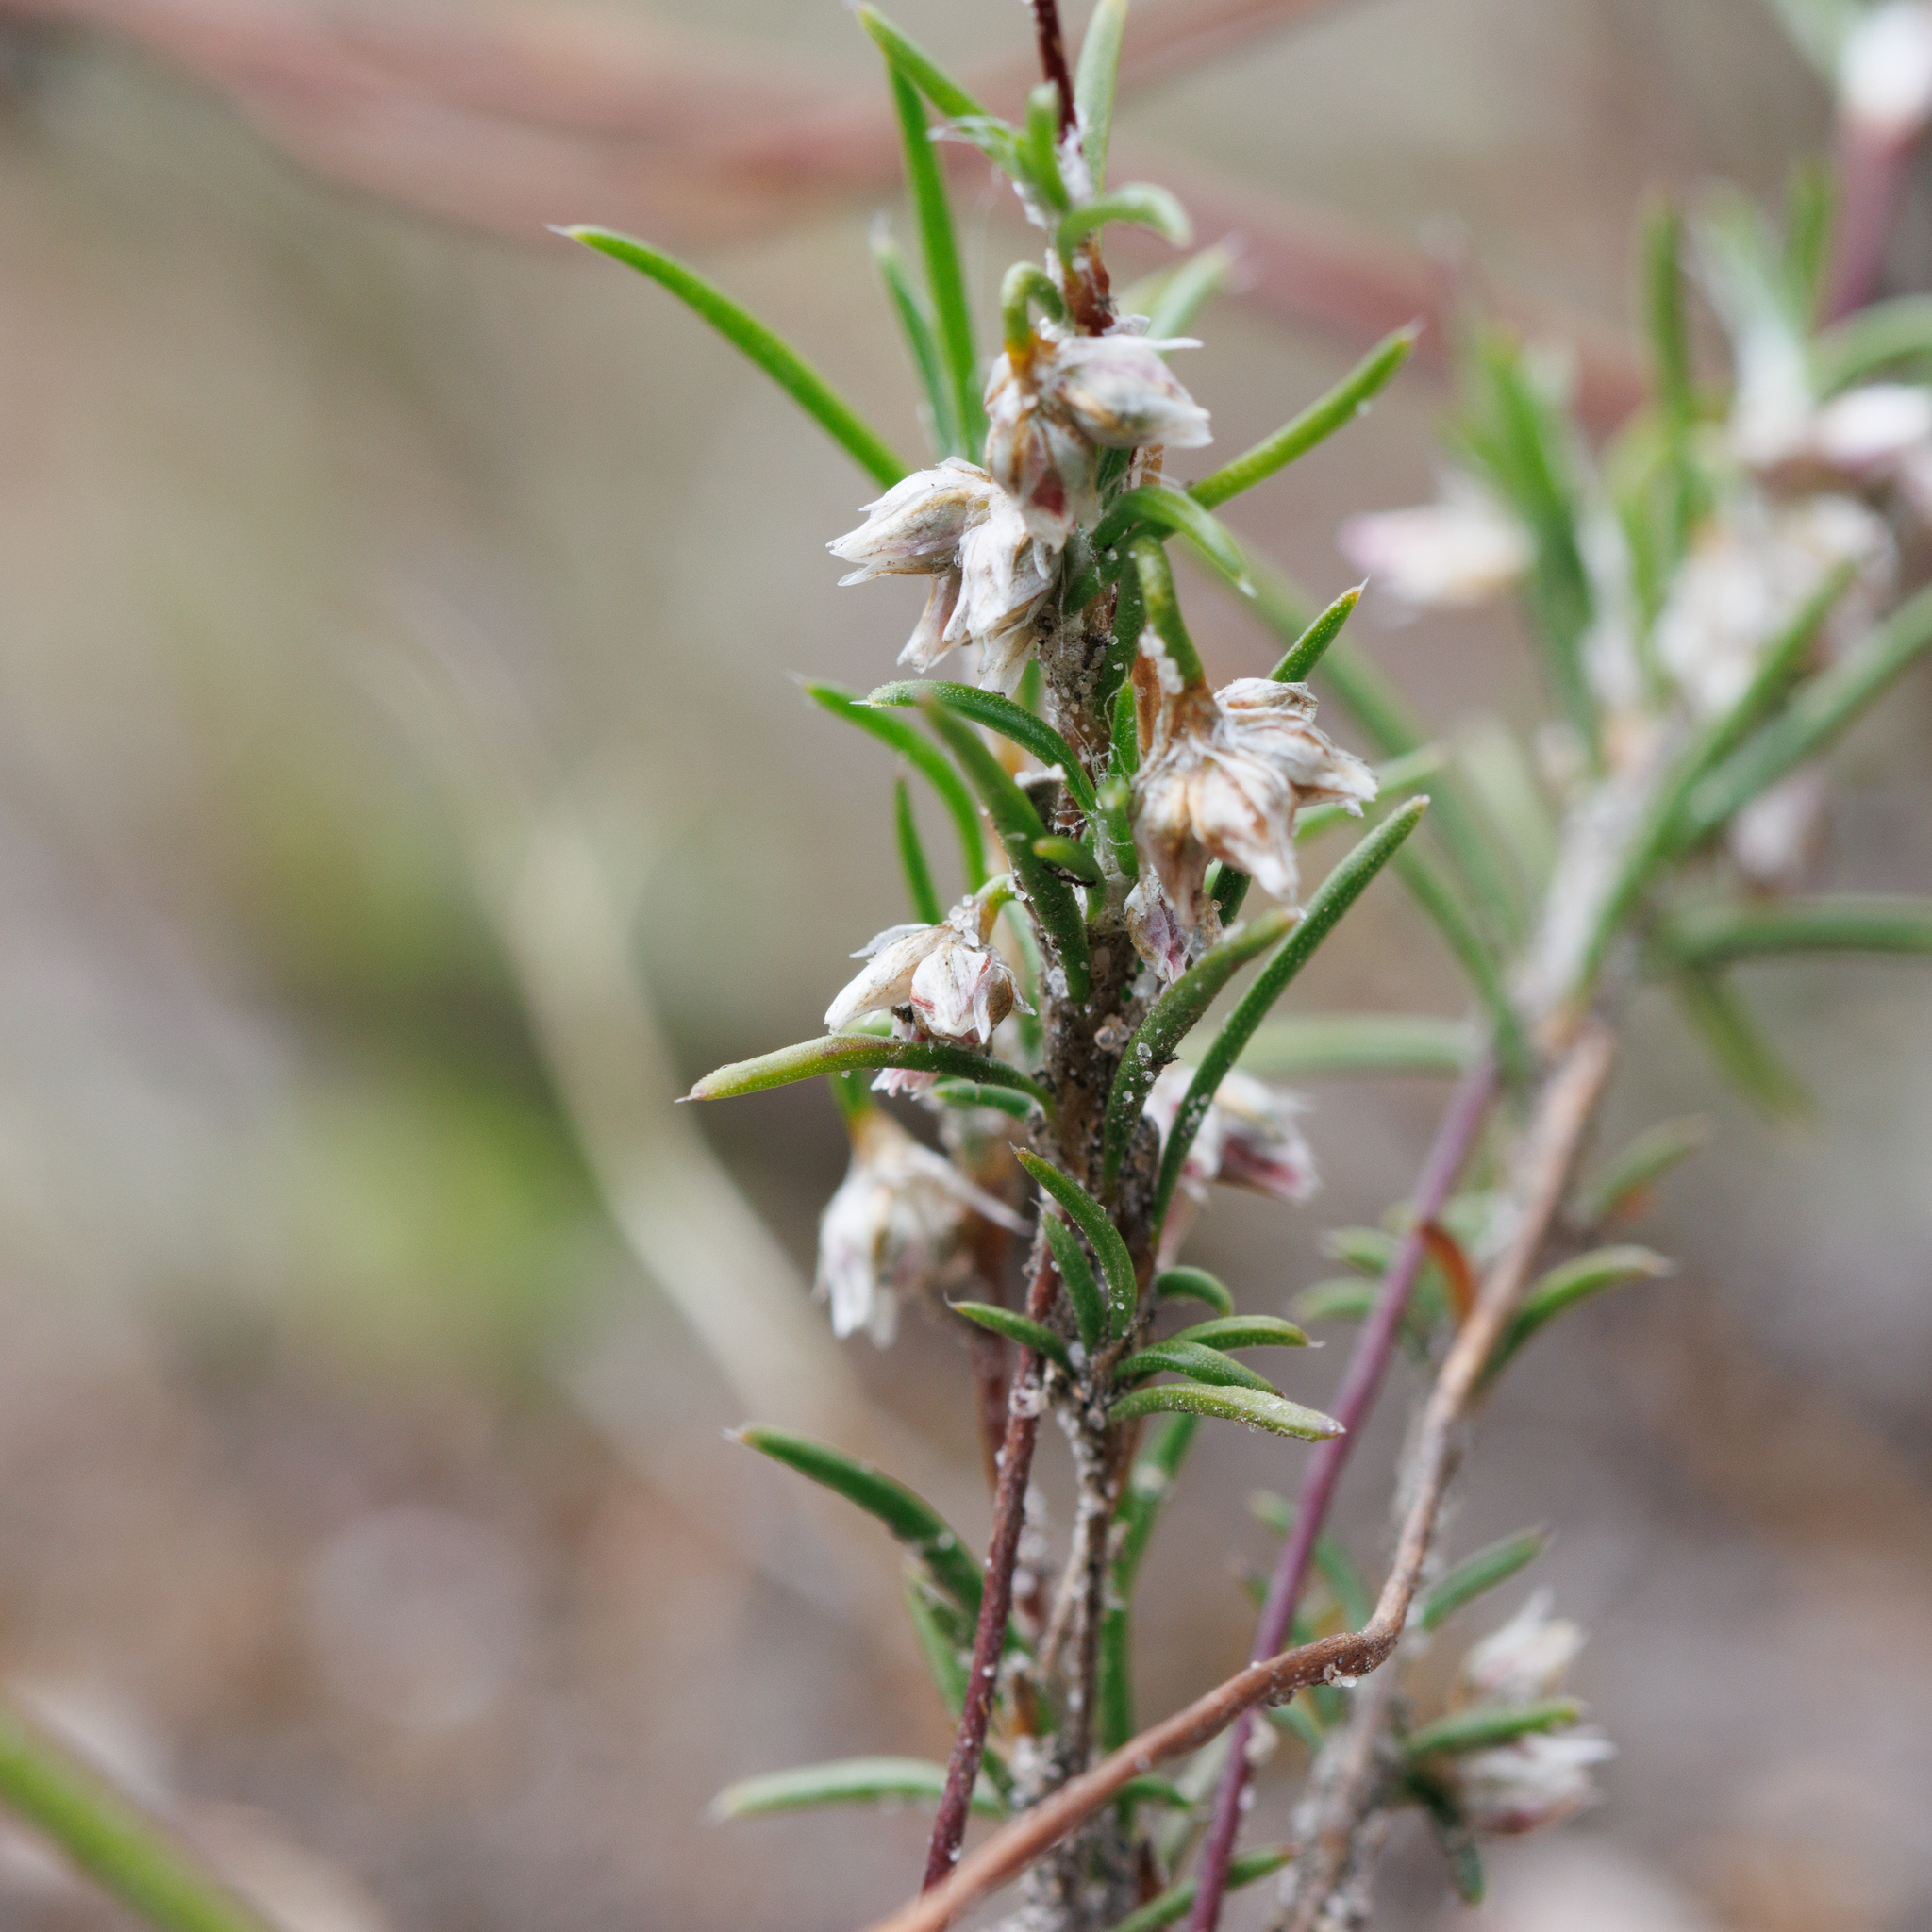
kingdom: Plantae
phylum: Tracheophyta
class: Liliopsida
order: Asparagales
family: Asparagaceae
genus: Laxmannia
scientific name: Laxmannia orientalis
